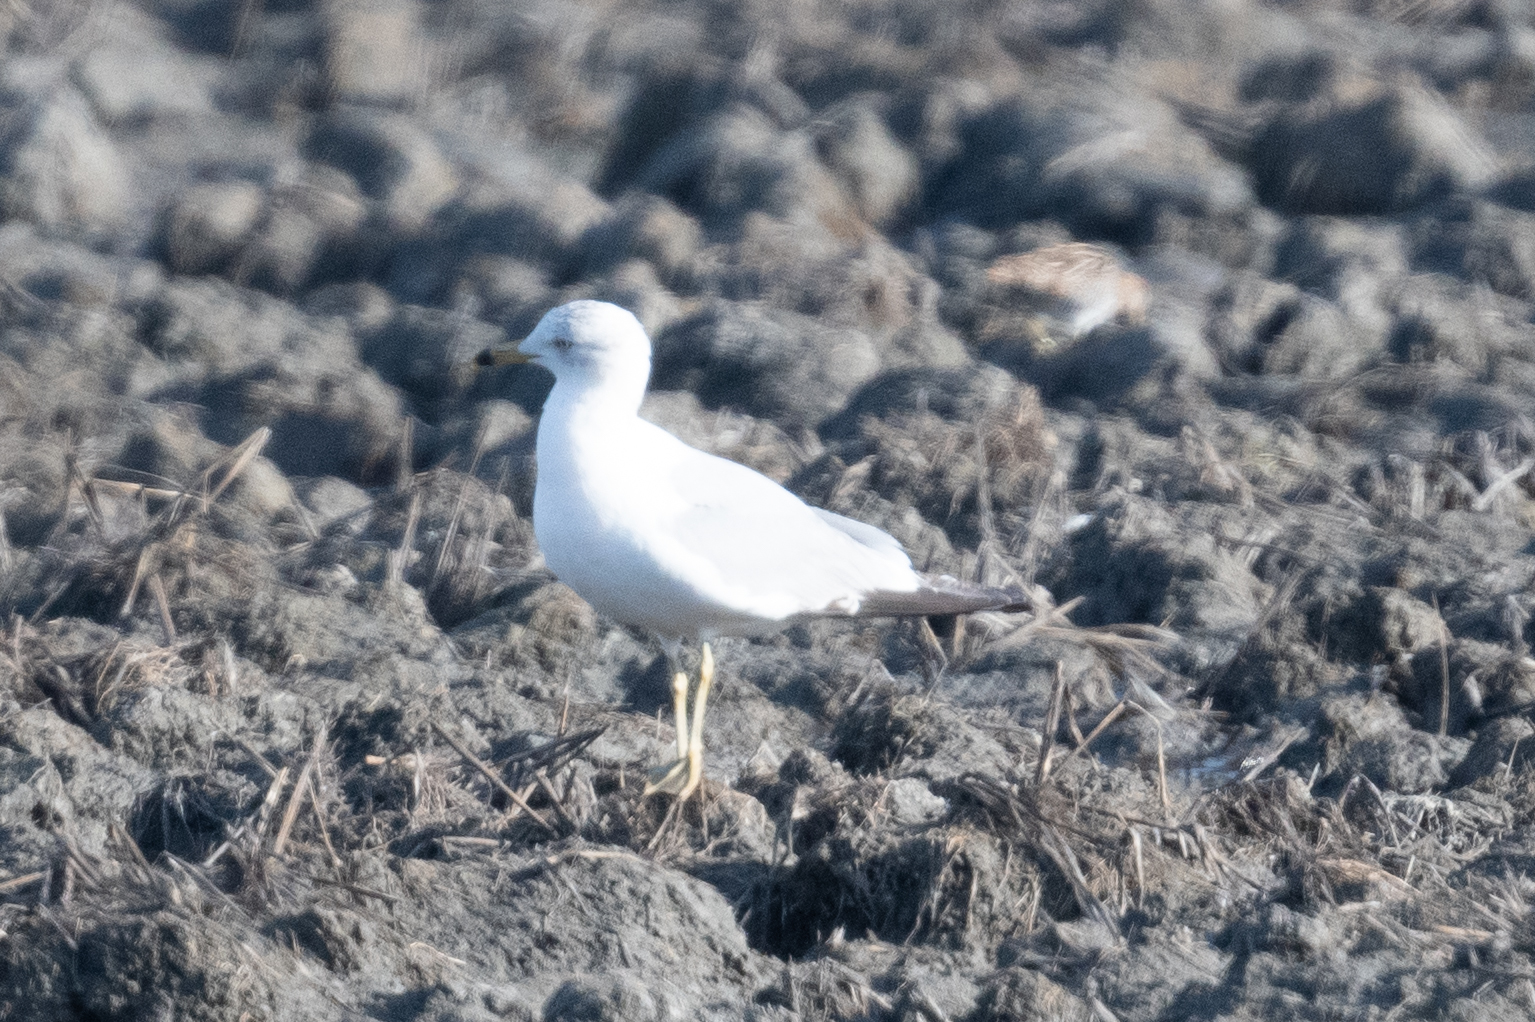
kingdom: Animalia
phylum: Chordata
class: Aves
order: Charadriiformes
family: Laridae
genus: Larus
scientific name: Larus delawarensis
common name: Ring-billed gull
